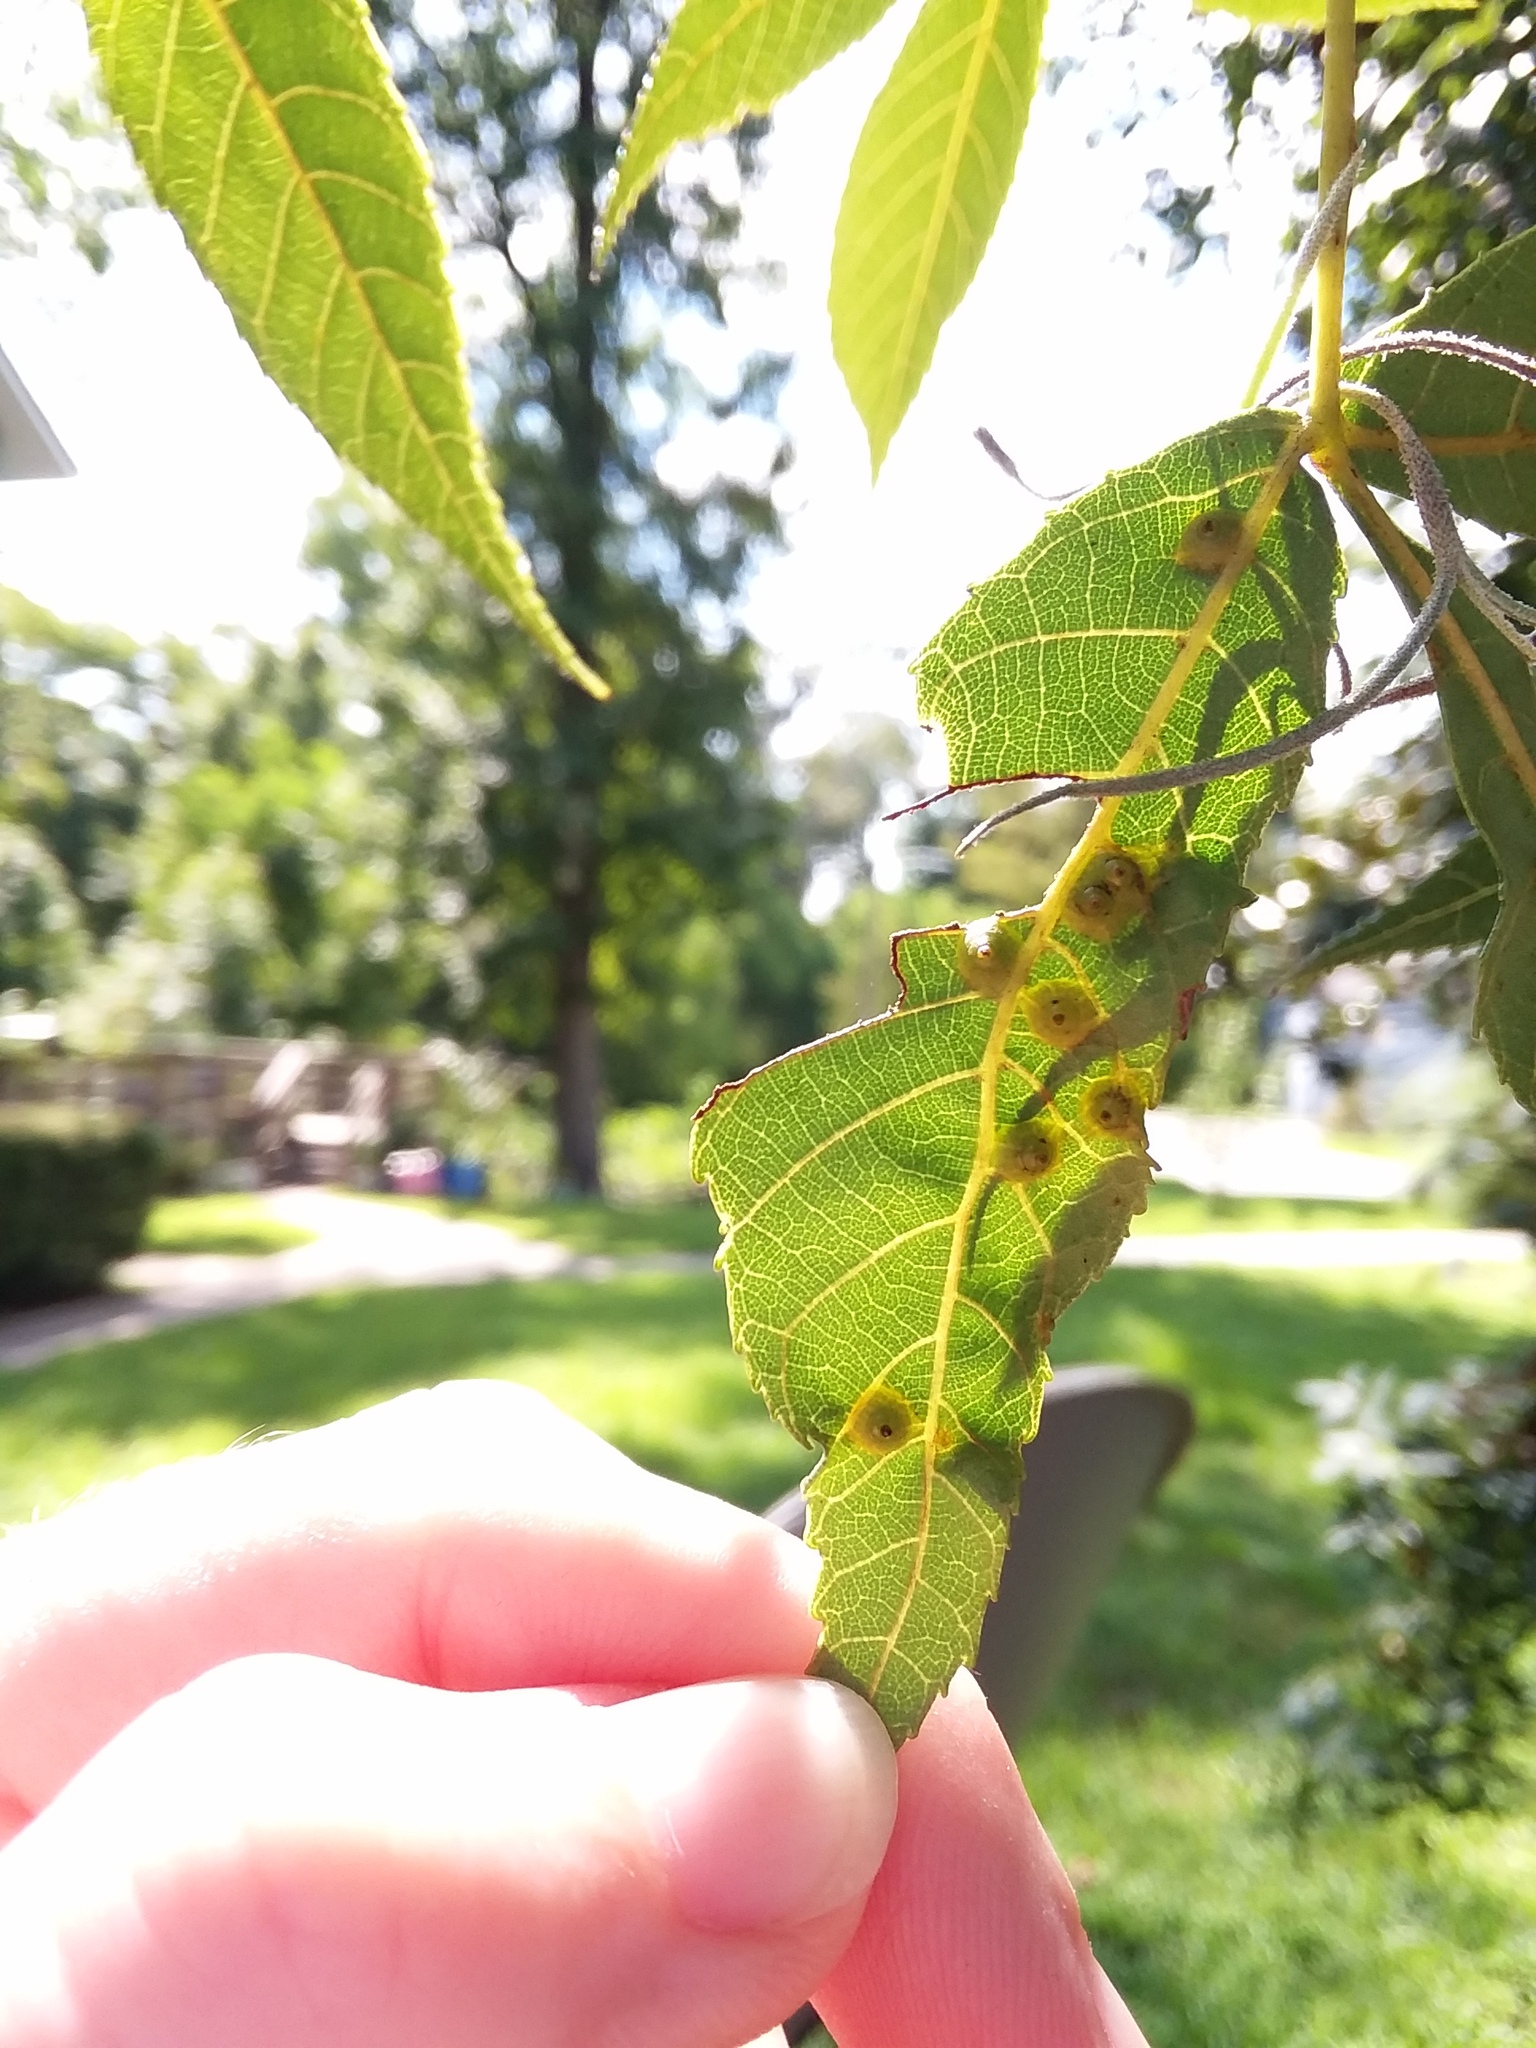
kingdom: Animalia
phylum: Arthropoda
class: Insecta
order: Diptera
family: Cecidomyiidae
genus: Caryomyia
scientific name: Caryomyia tubicola
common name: Hickory bullet gall midge
